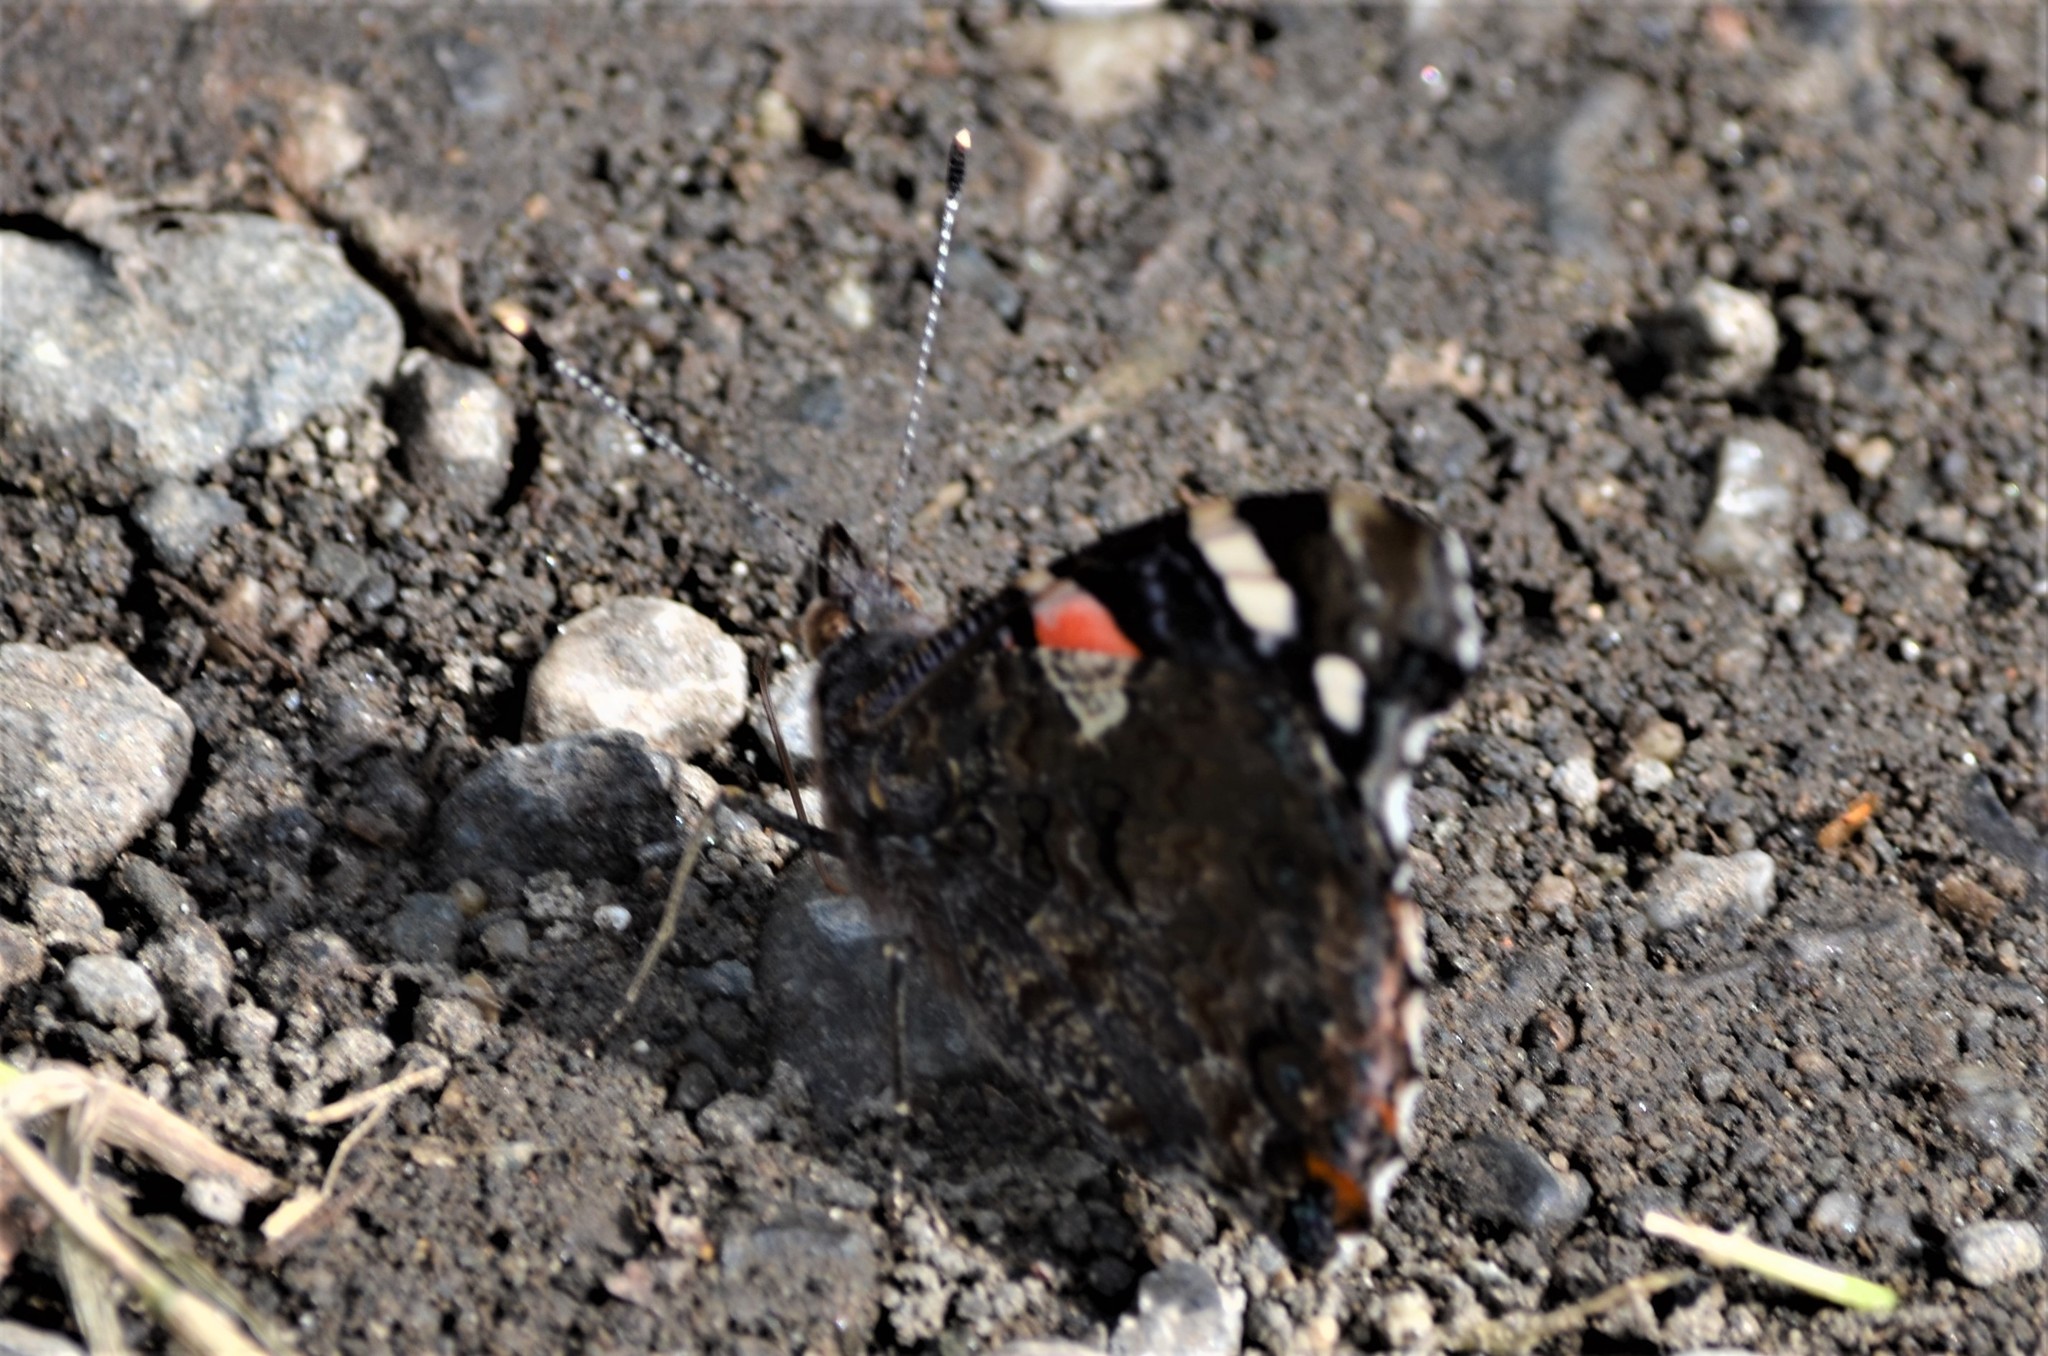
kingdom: Animalia
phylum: Arthropoda
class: Insecta
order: Lepidoptera
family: Nymphalidae
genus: Vanessa
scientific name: Vanessa atalanta
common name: Red admiral
